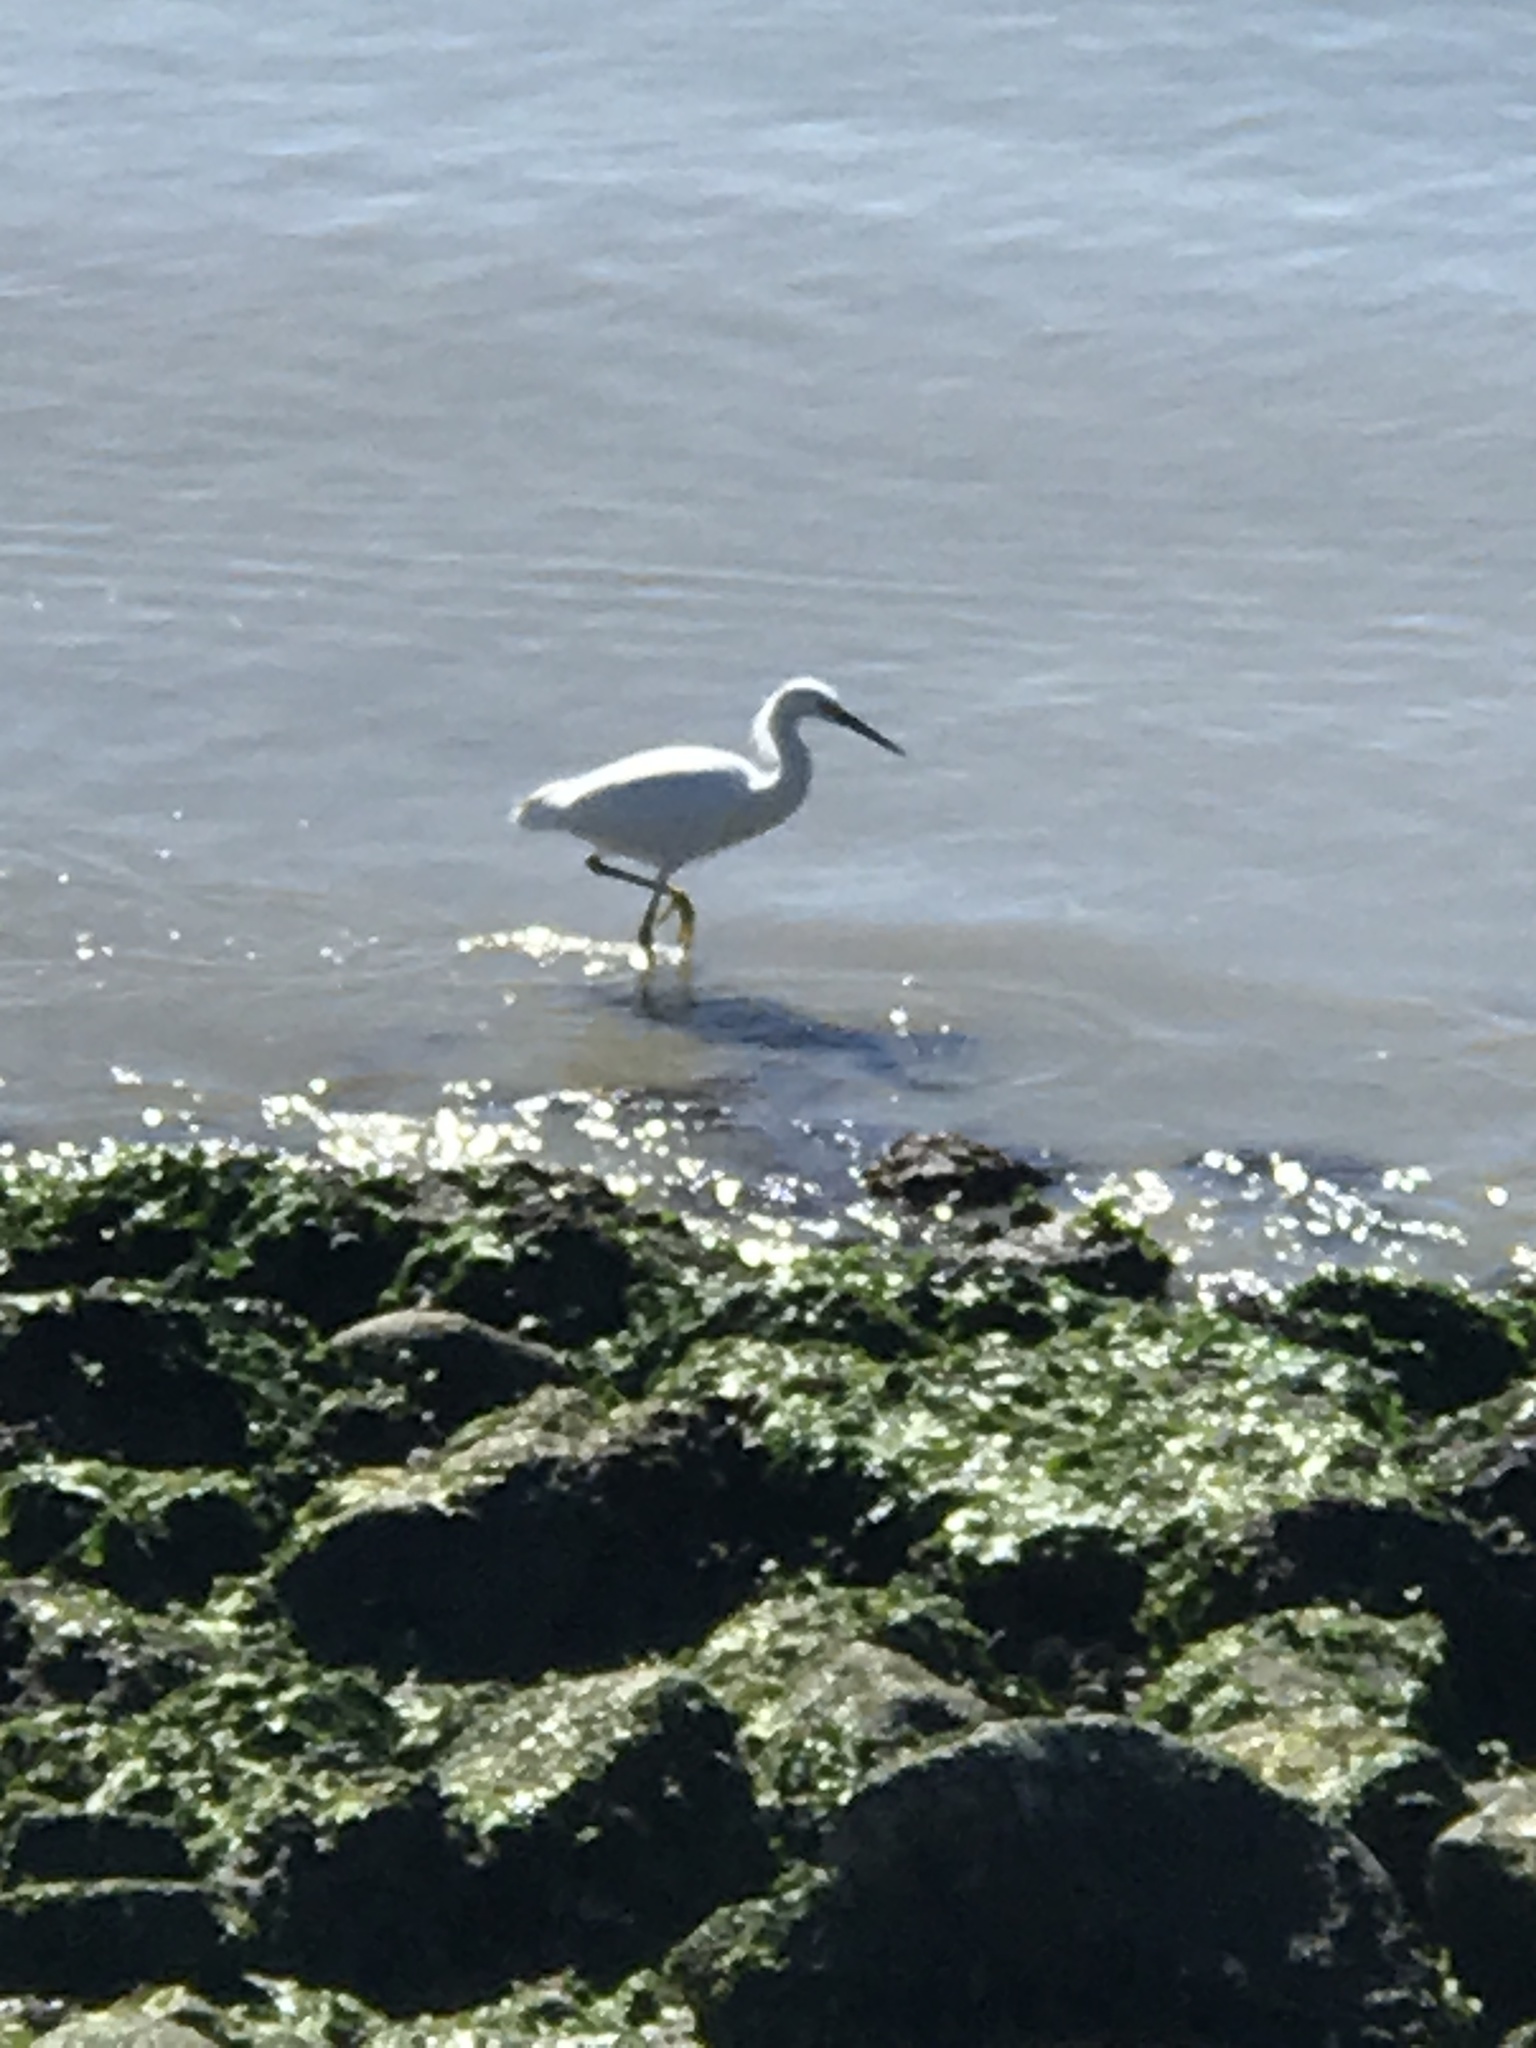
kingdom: Animalia
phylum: Chordata
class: Aves
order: Pelecaniformes
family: Ardeidae
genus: Egretta
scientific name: Egretta thula
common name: Snowy egret
